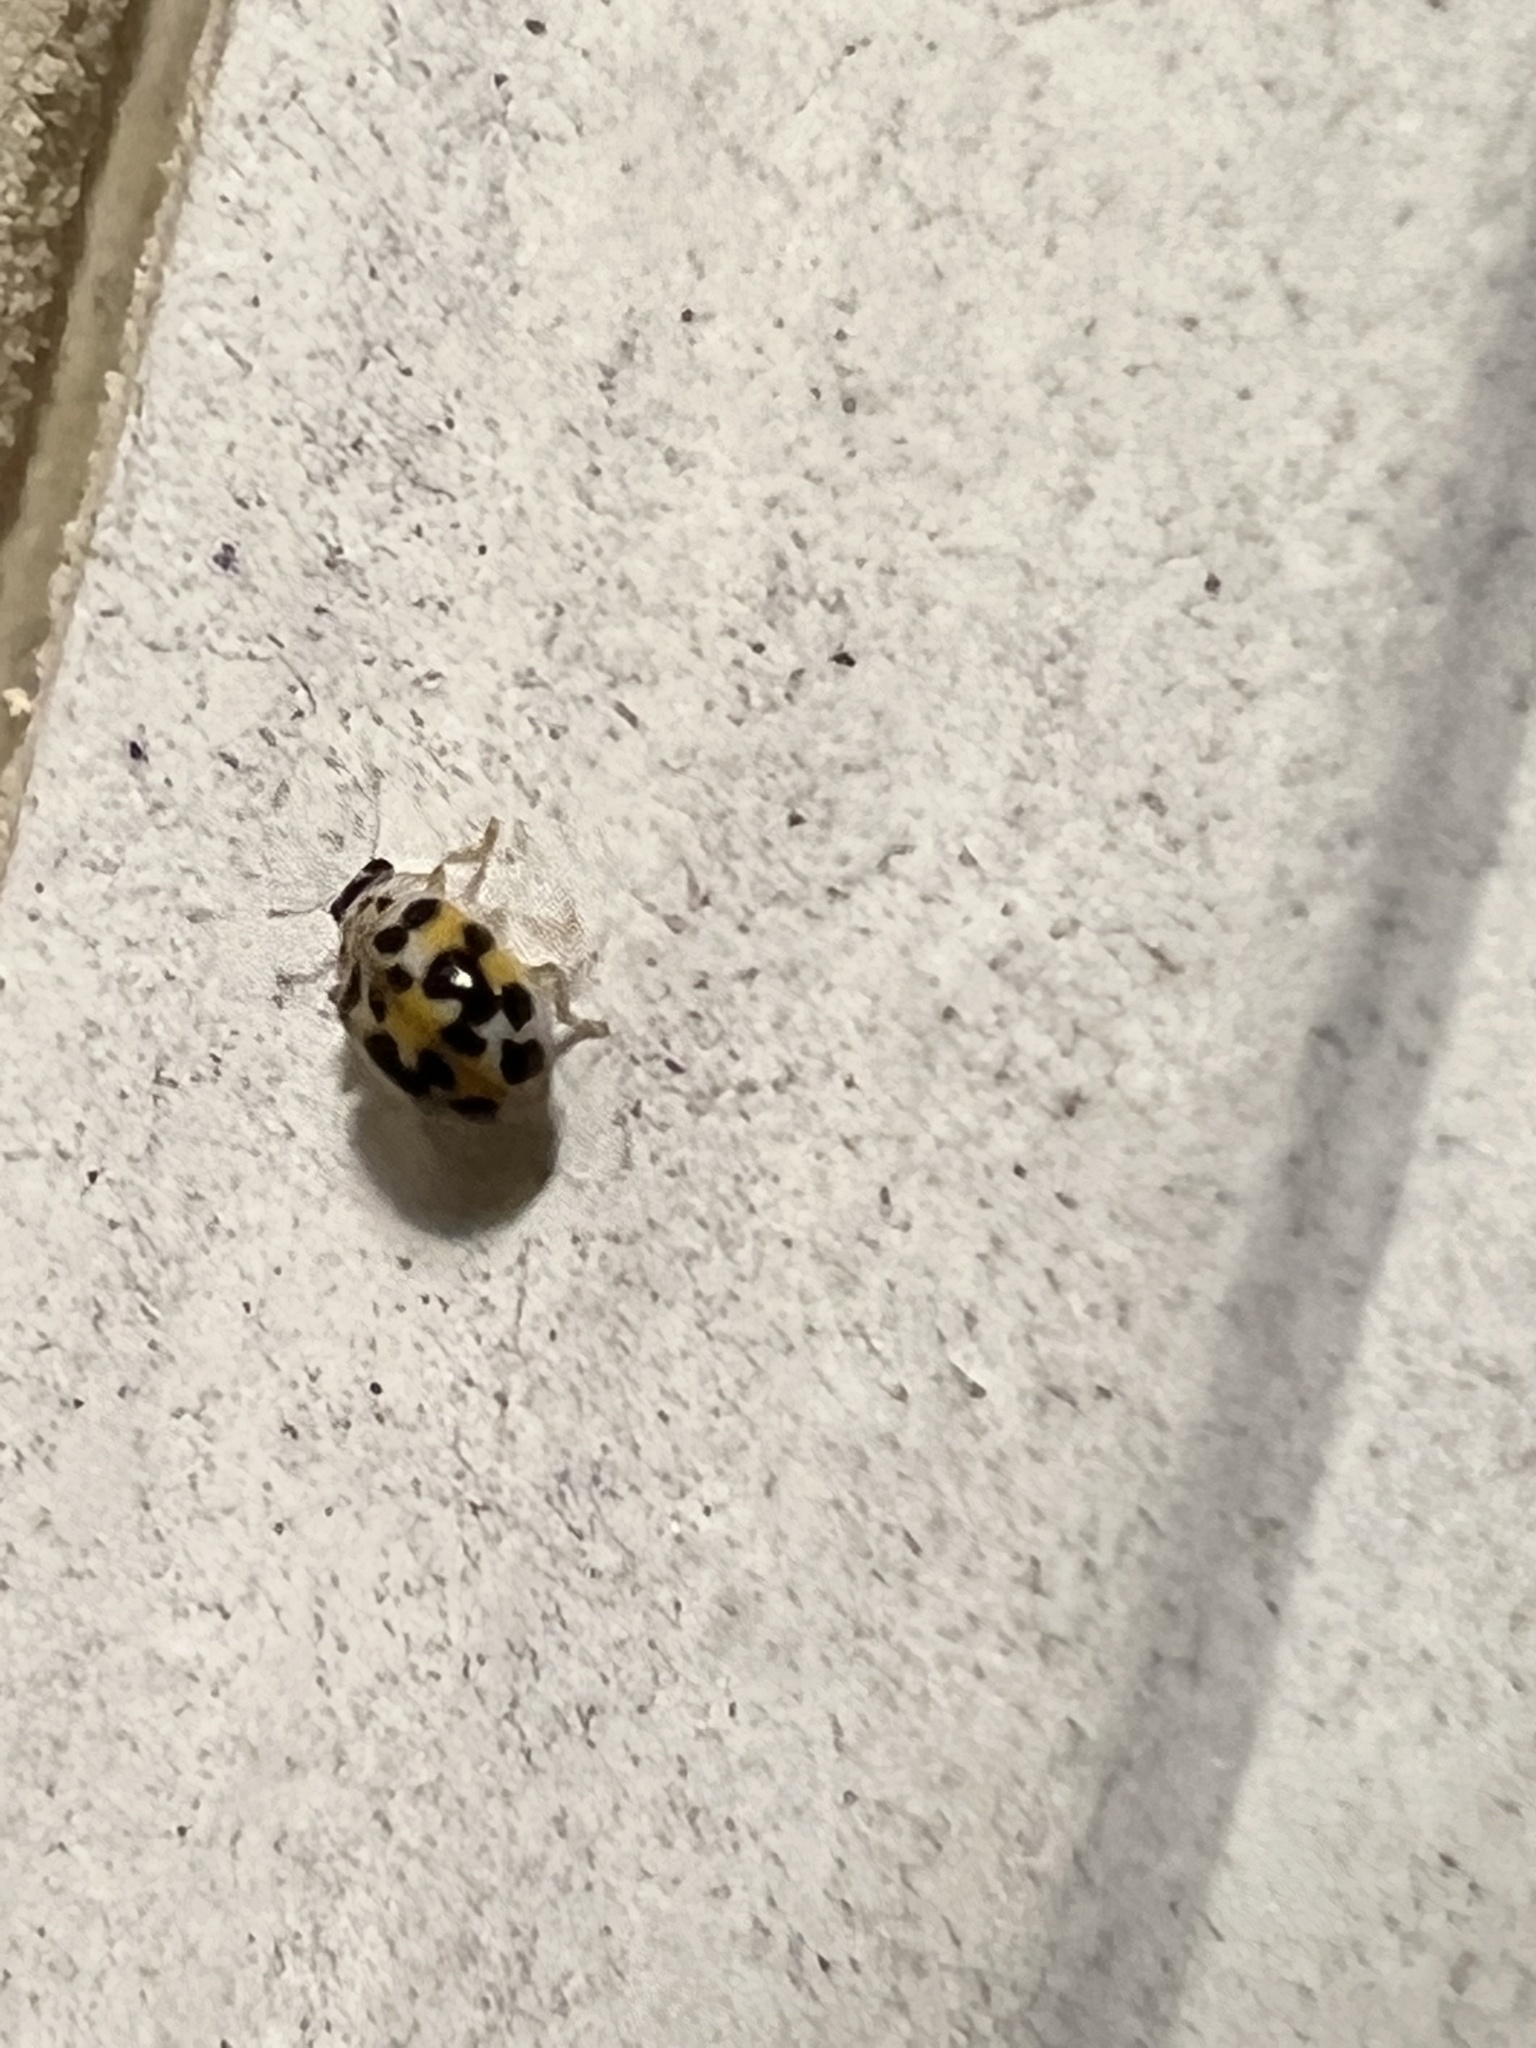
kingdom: Animalia
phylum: Arthropoda
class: Insecta
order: Coleoptera
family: Coccinellidae
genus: Psyllobora
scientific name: Psyllobora vigintimaculata
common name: Ladybird beetle
